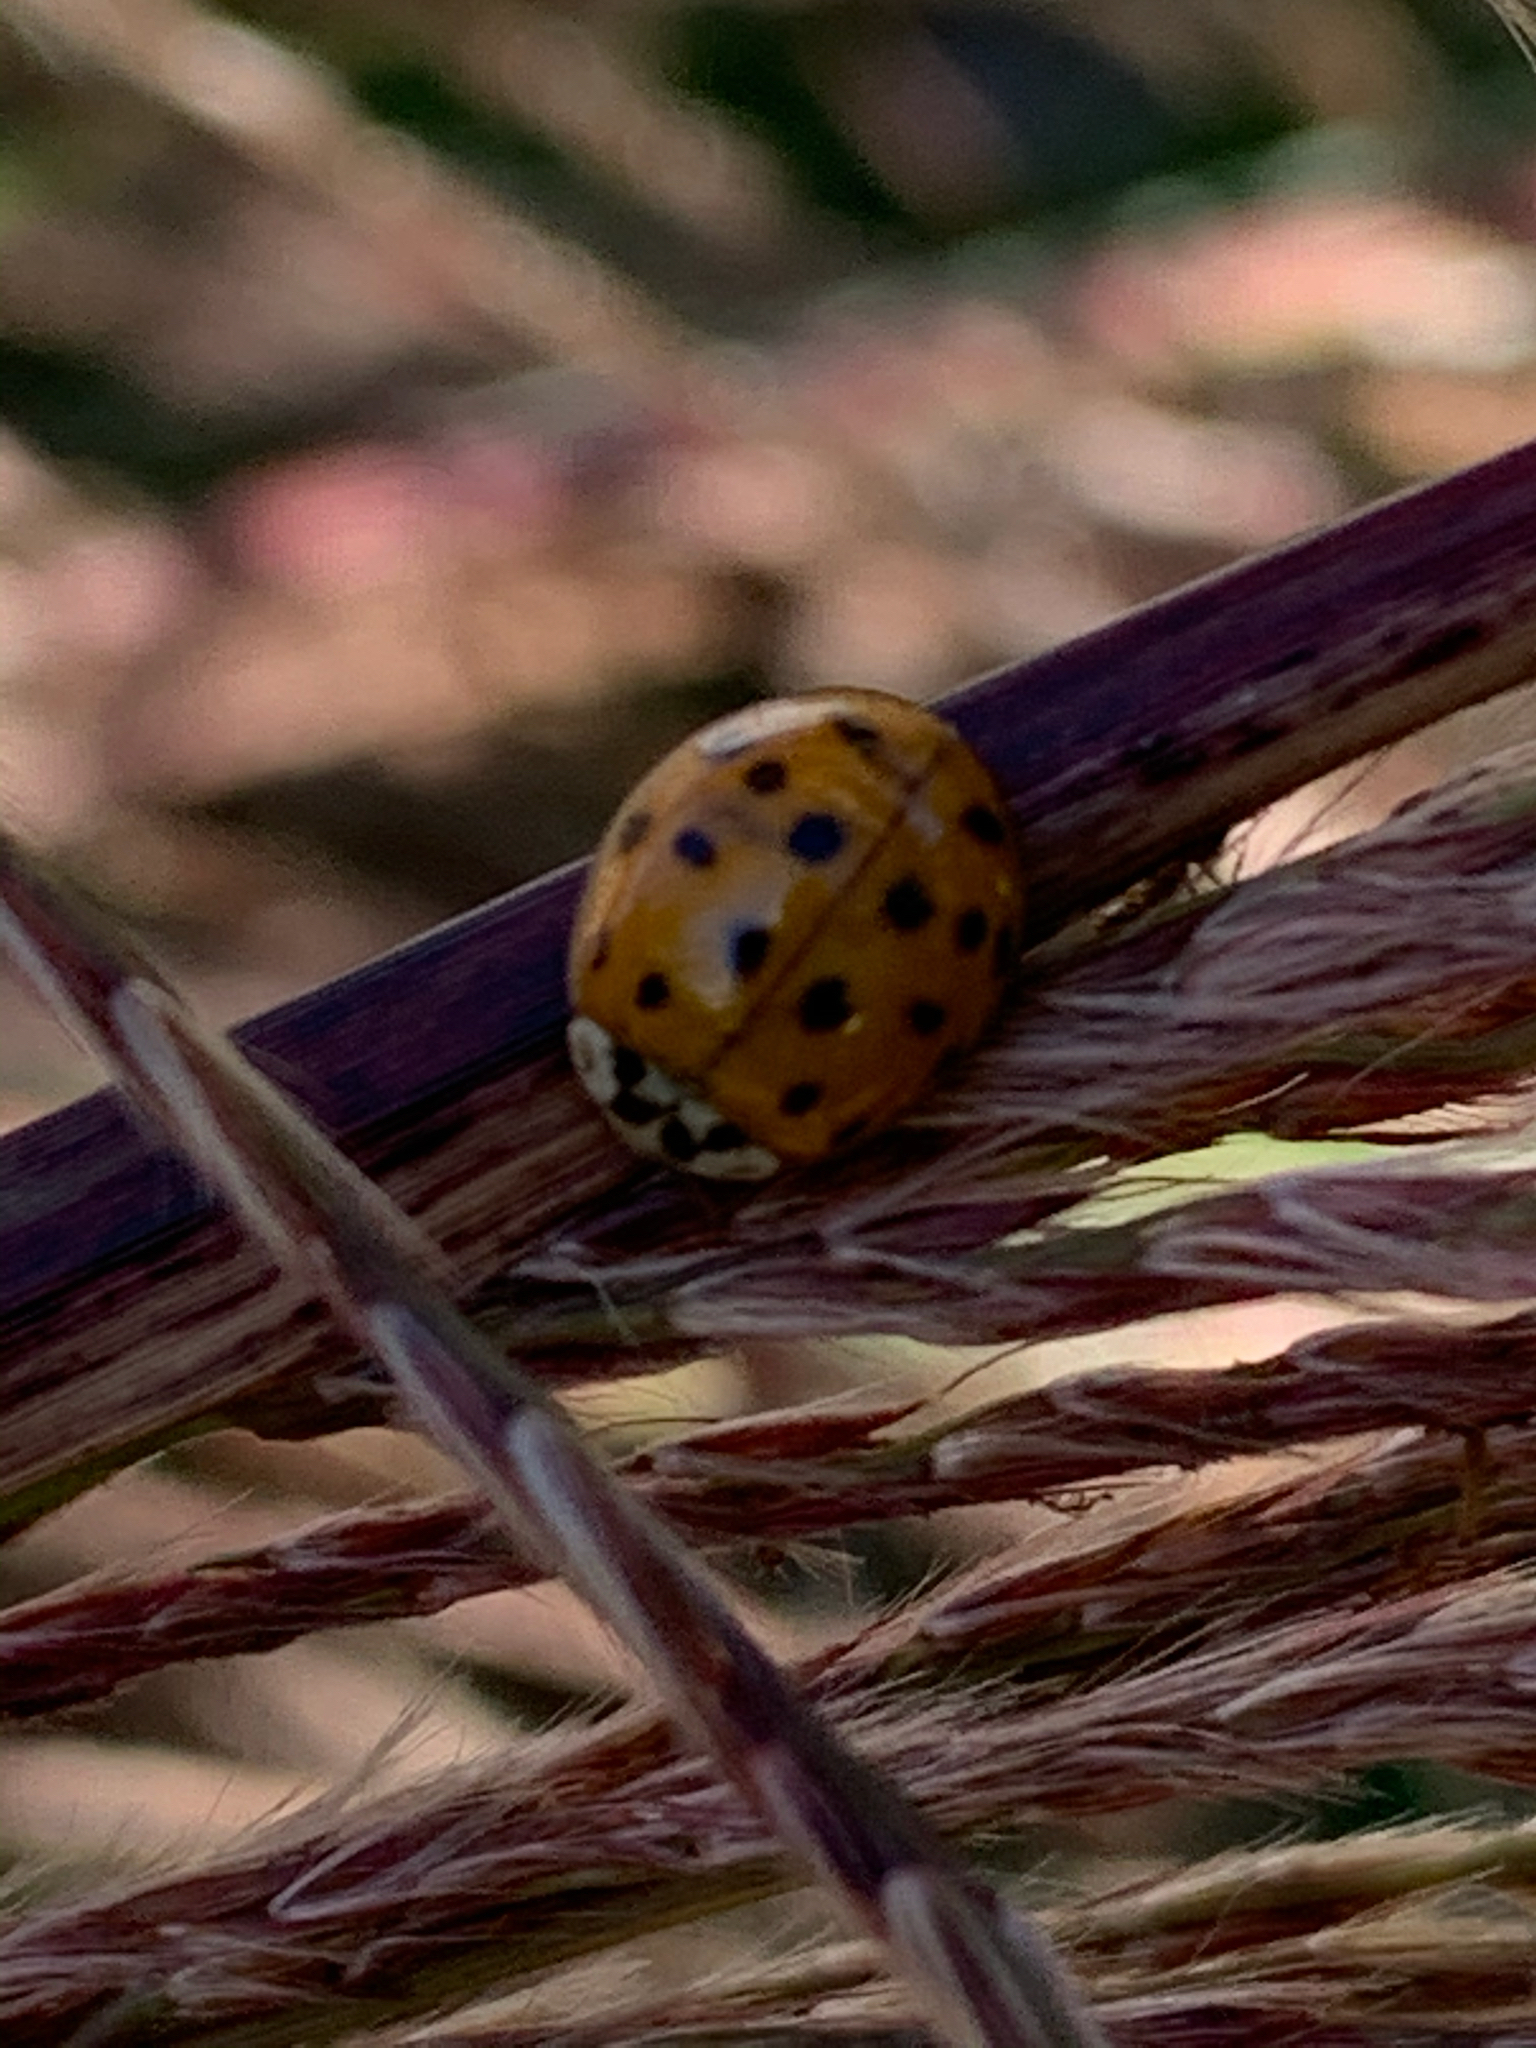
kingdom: Animalia
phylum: Arthropoda
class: Insecta
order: Coleoptera
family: Coccinellidae
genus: Harmonia
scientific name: Harmonia axyridis
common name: Harlequin ladybird
